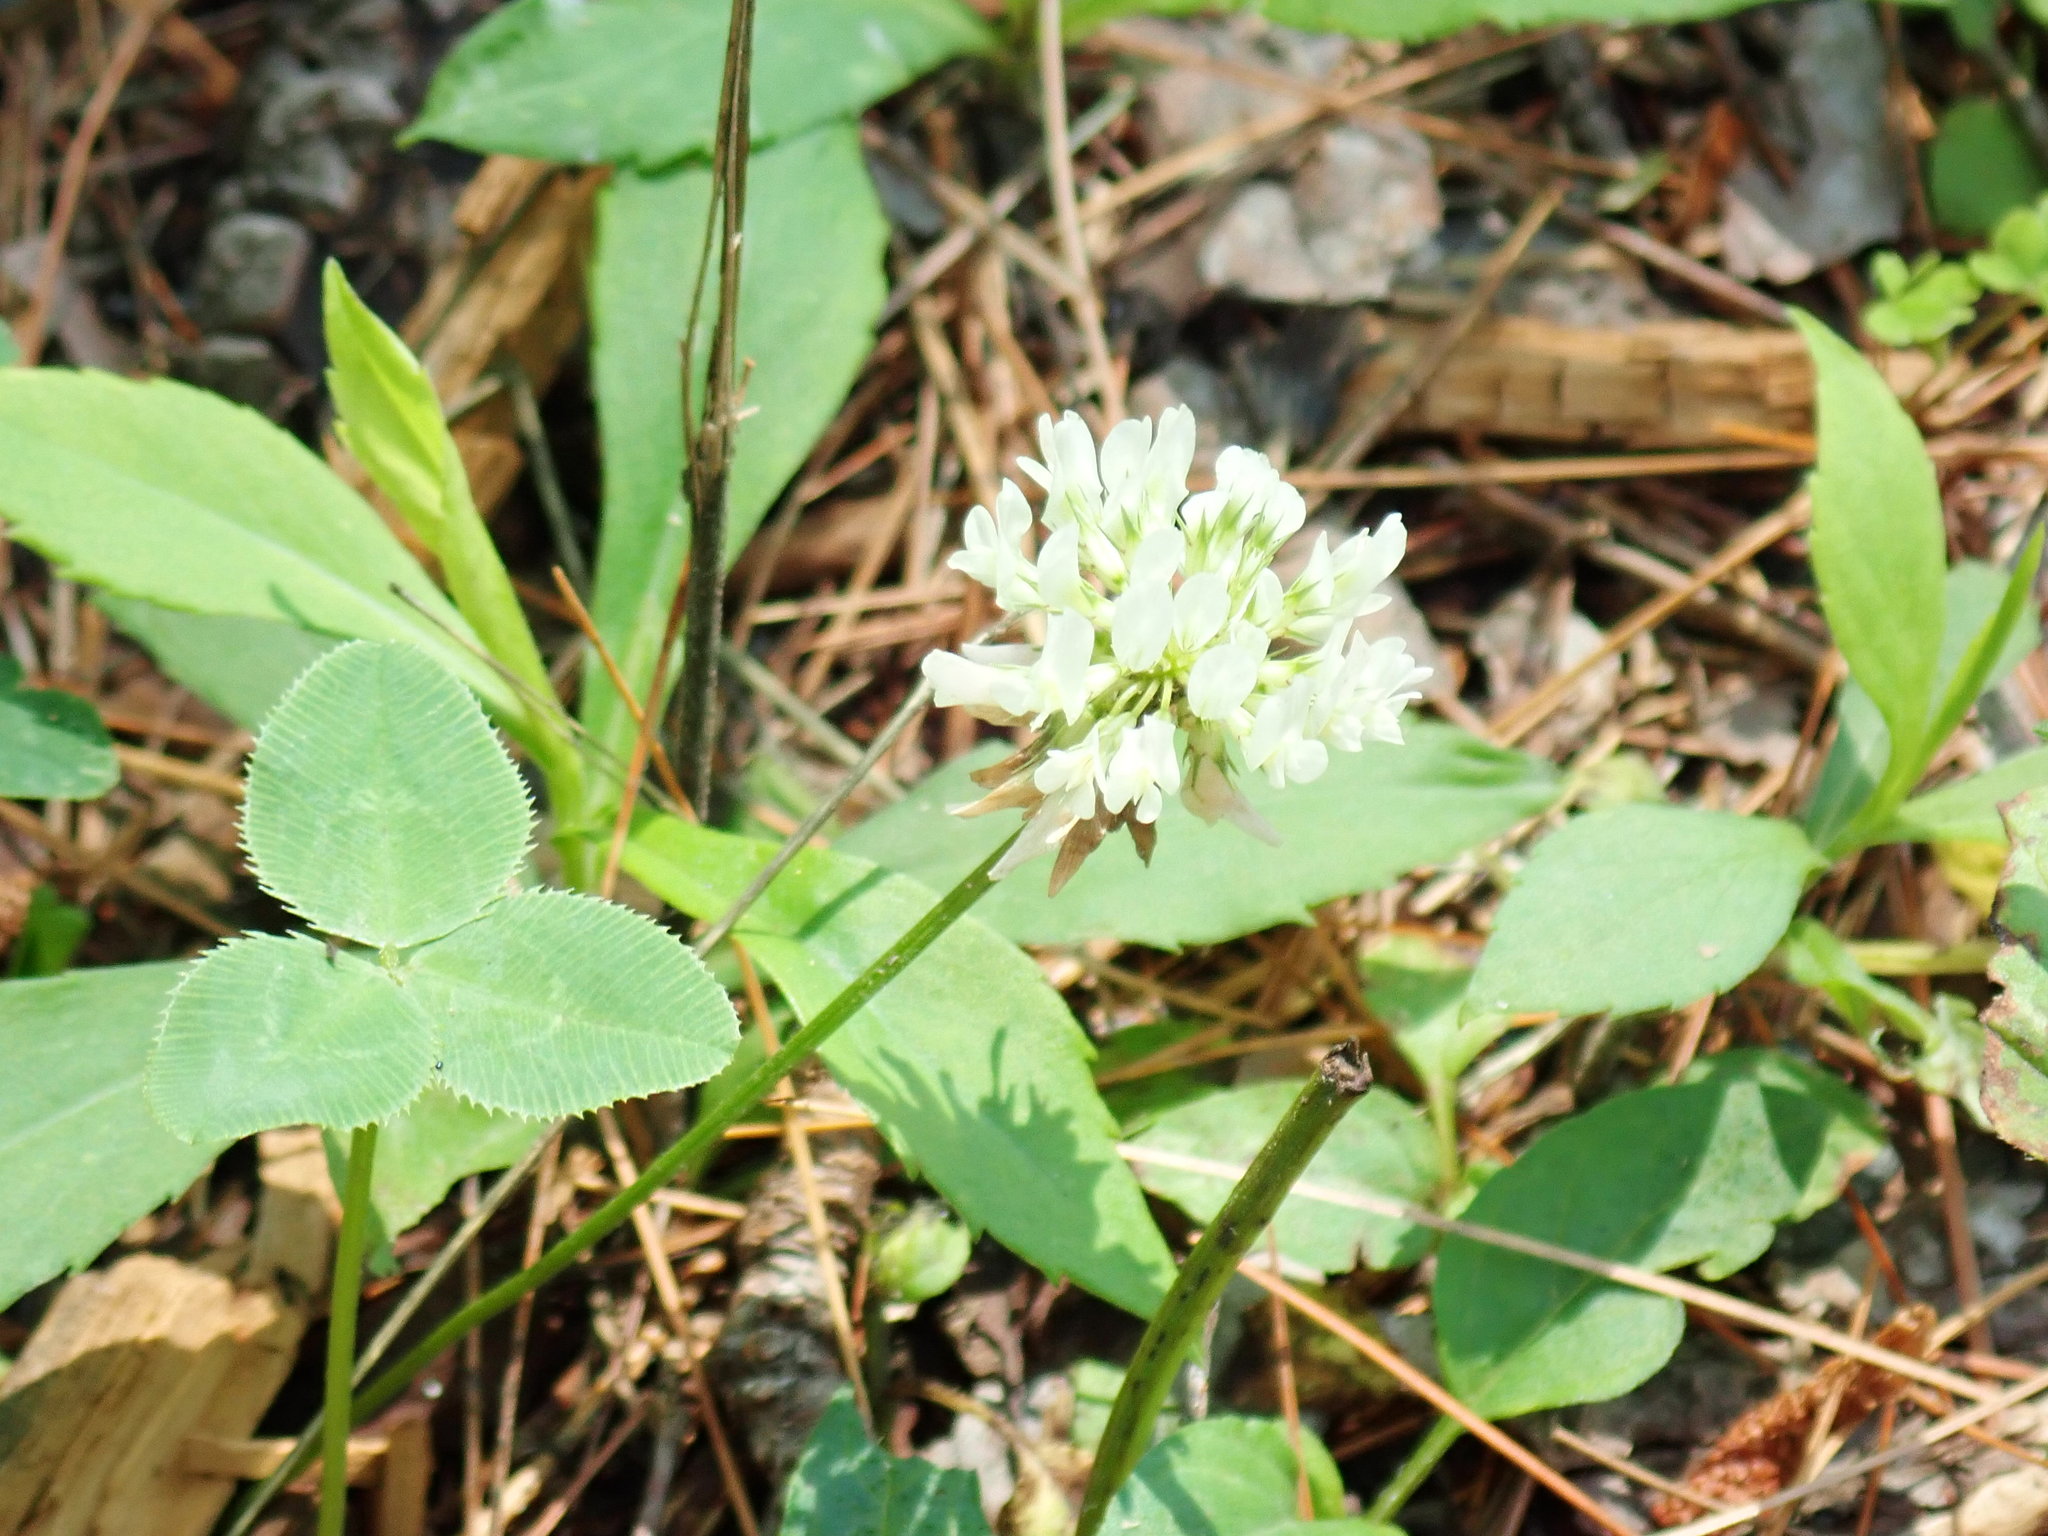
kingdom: Plantae
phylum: Tracheophyta
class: Magnoliopsida
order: Fabales
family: Fabaceae
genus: Trifolium
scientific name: Trifolium repens
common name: White clover
